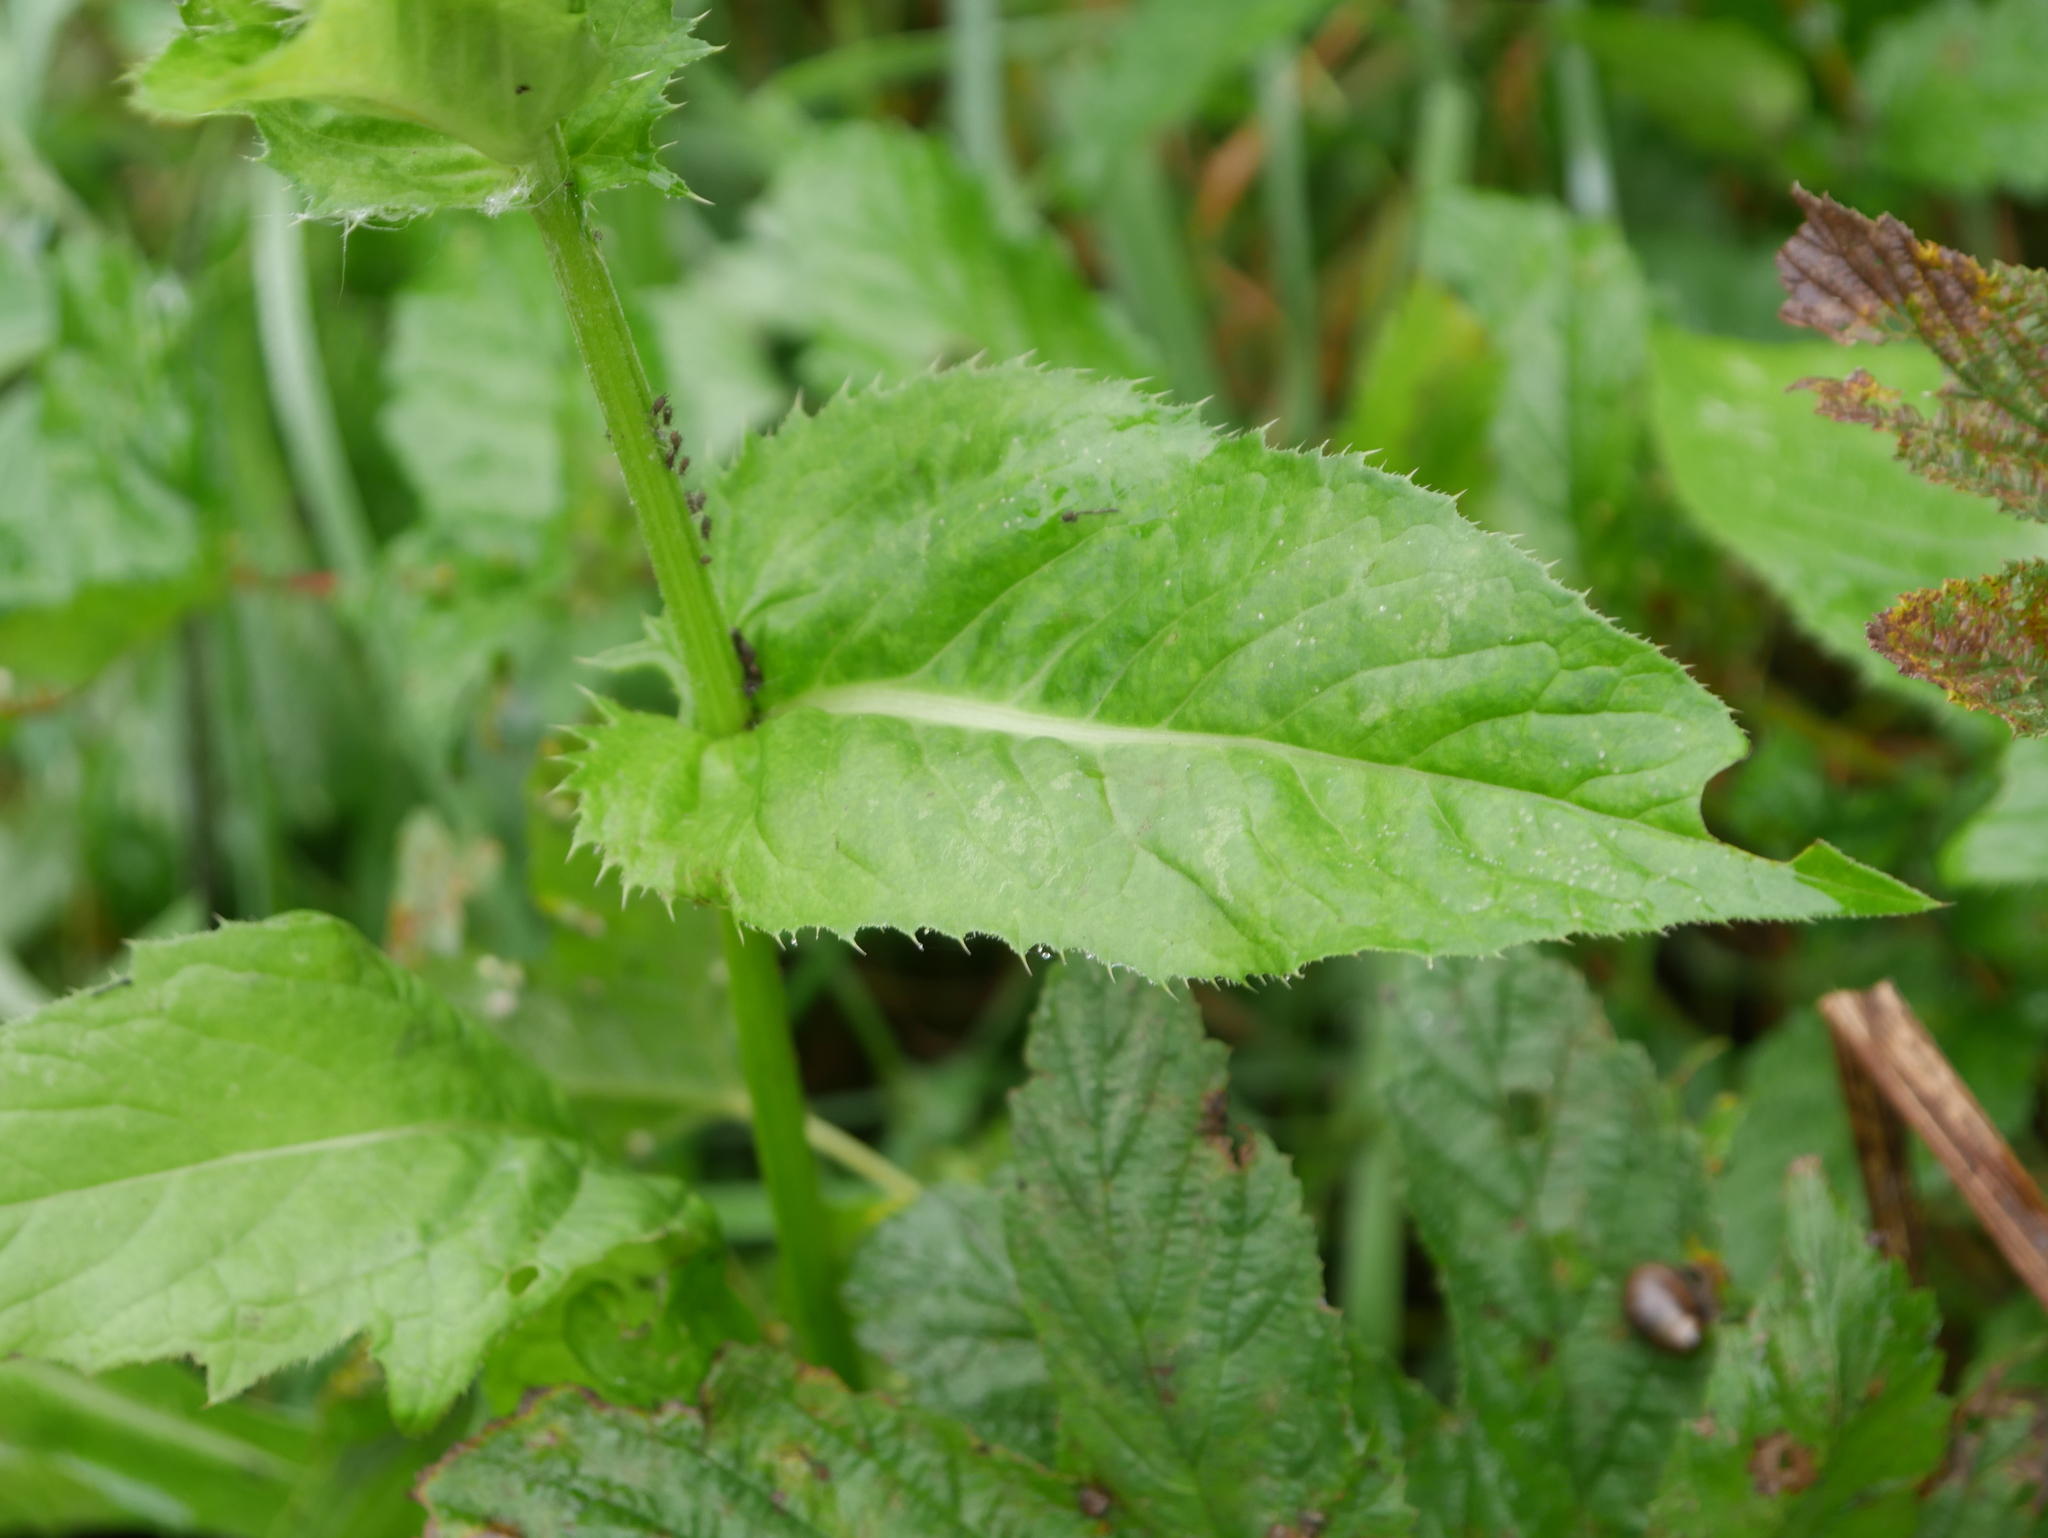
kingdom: Plantae
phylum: Tracheophyta
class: Magnoliopsida
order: Asterales
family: Asteraceae
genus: Cirsium
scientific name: Cirsium oleraceum
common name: Cabbage thistle
